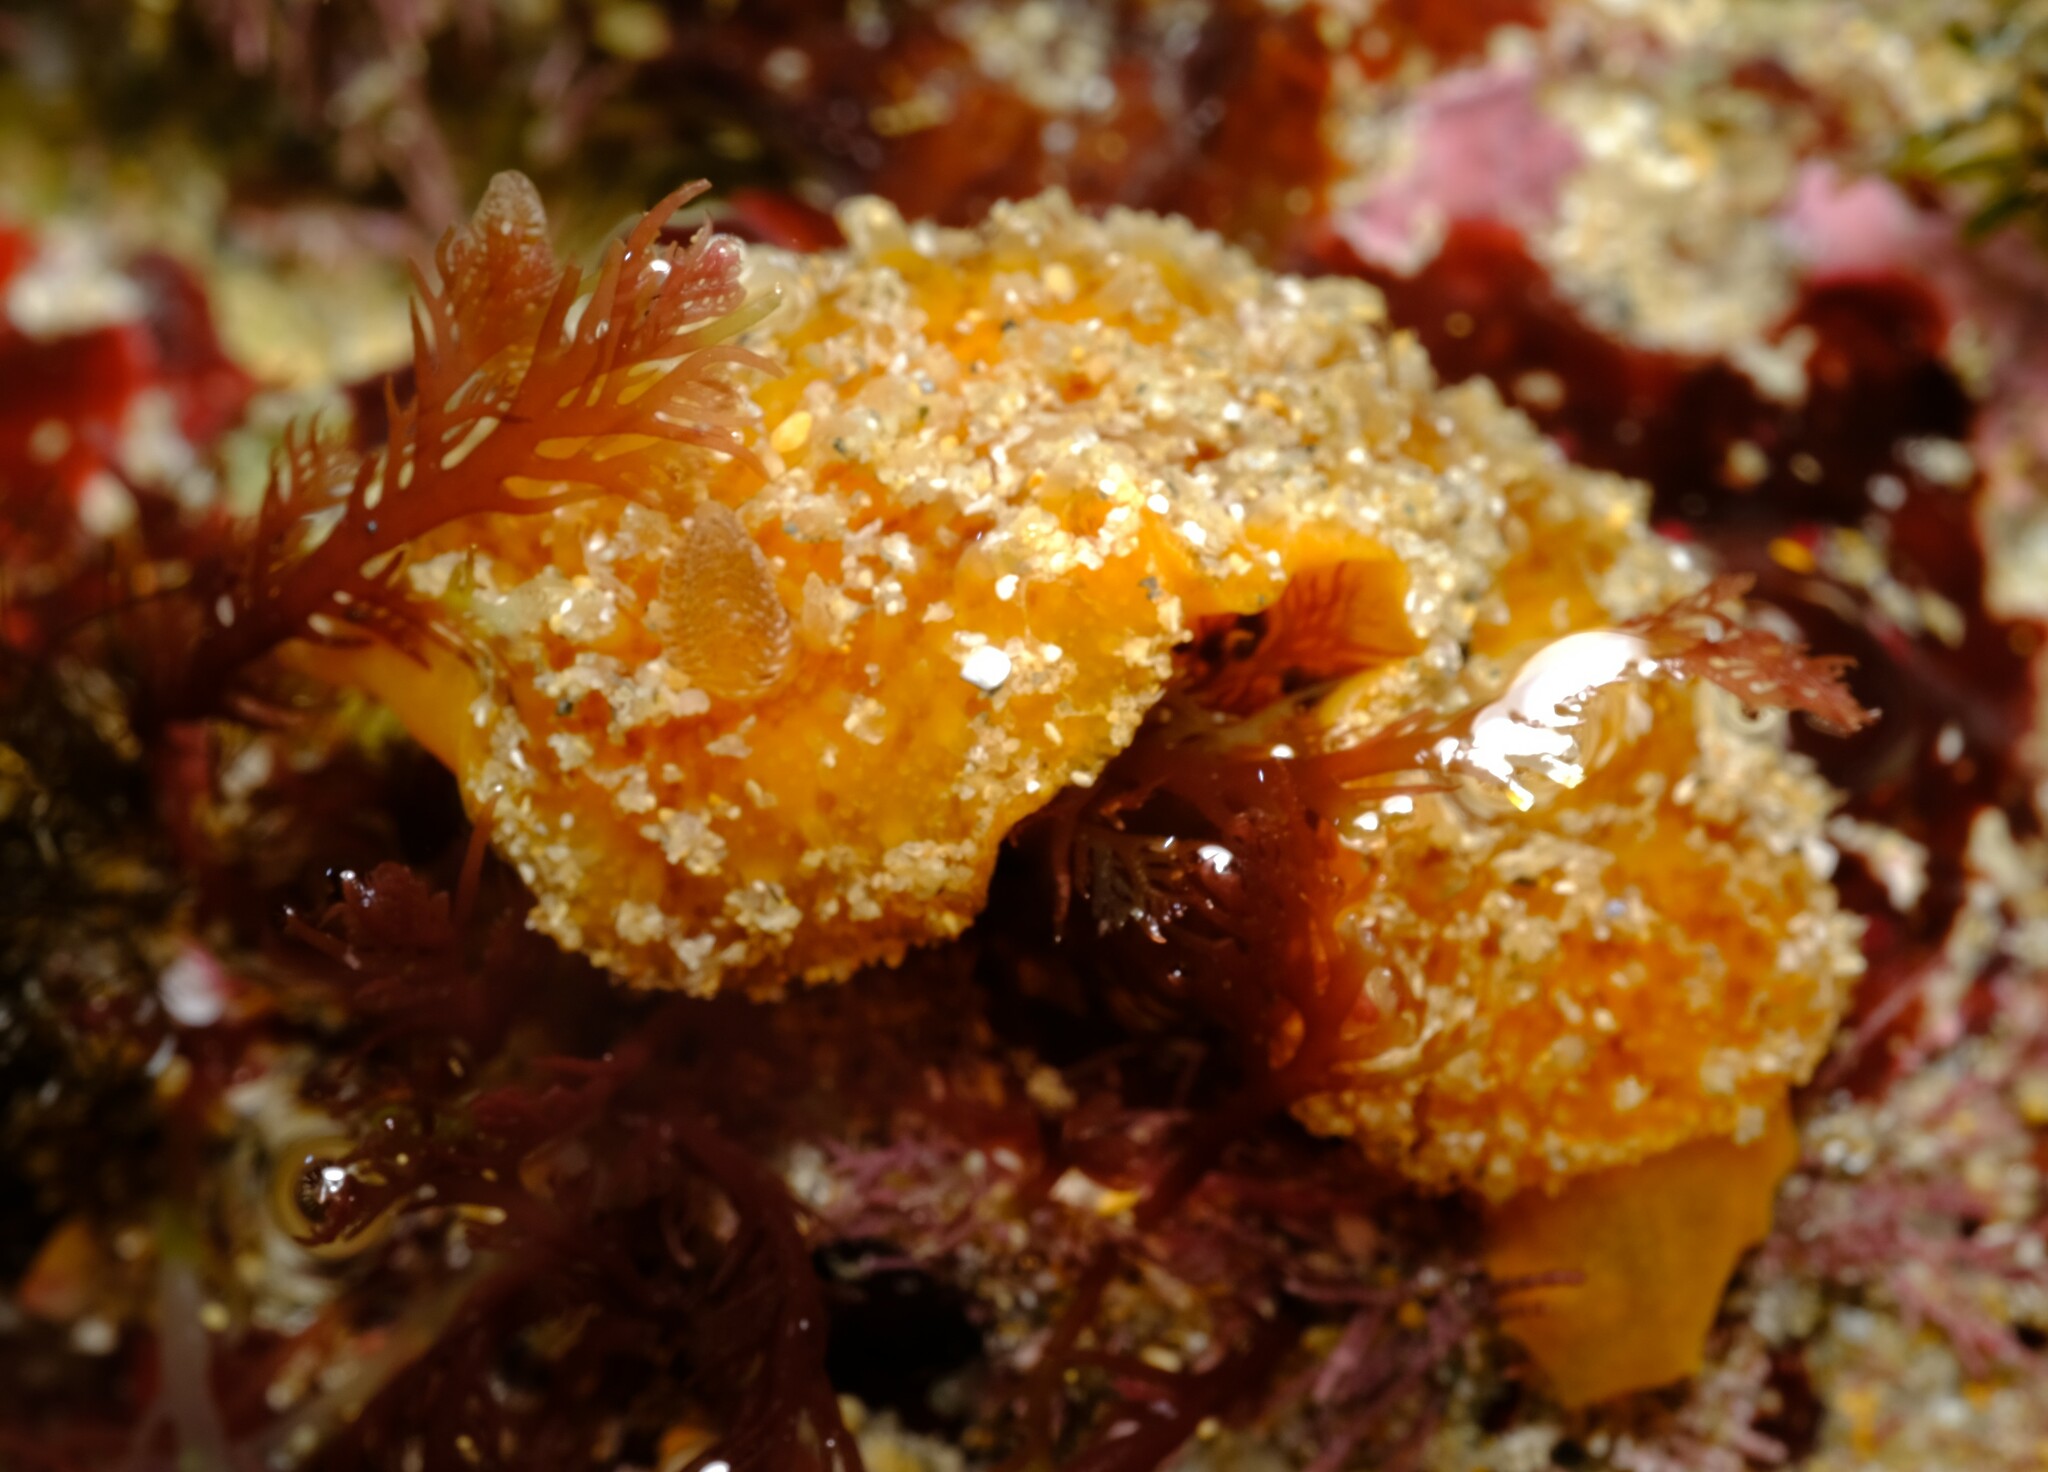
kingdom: Animalia
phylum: Mollusca
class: Gastropoda
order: Nudibranchia
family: Discodorididae
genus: Thordisa
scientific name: Thordisa verrucosa
